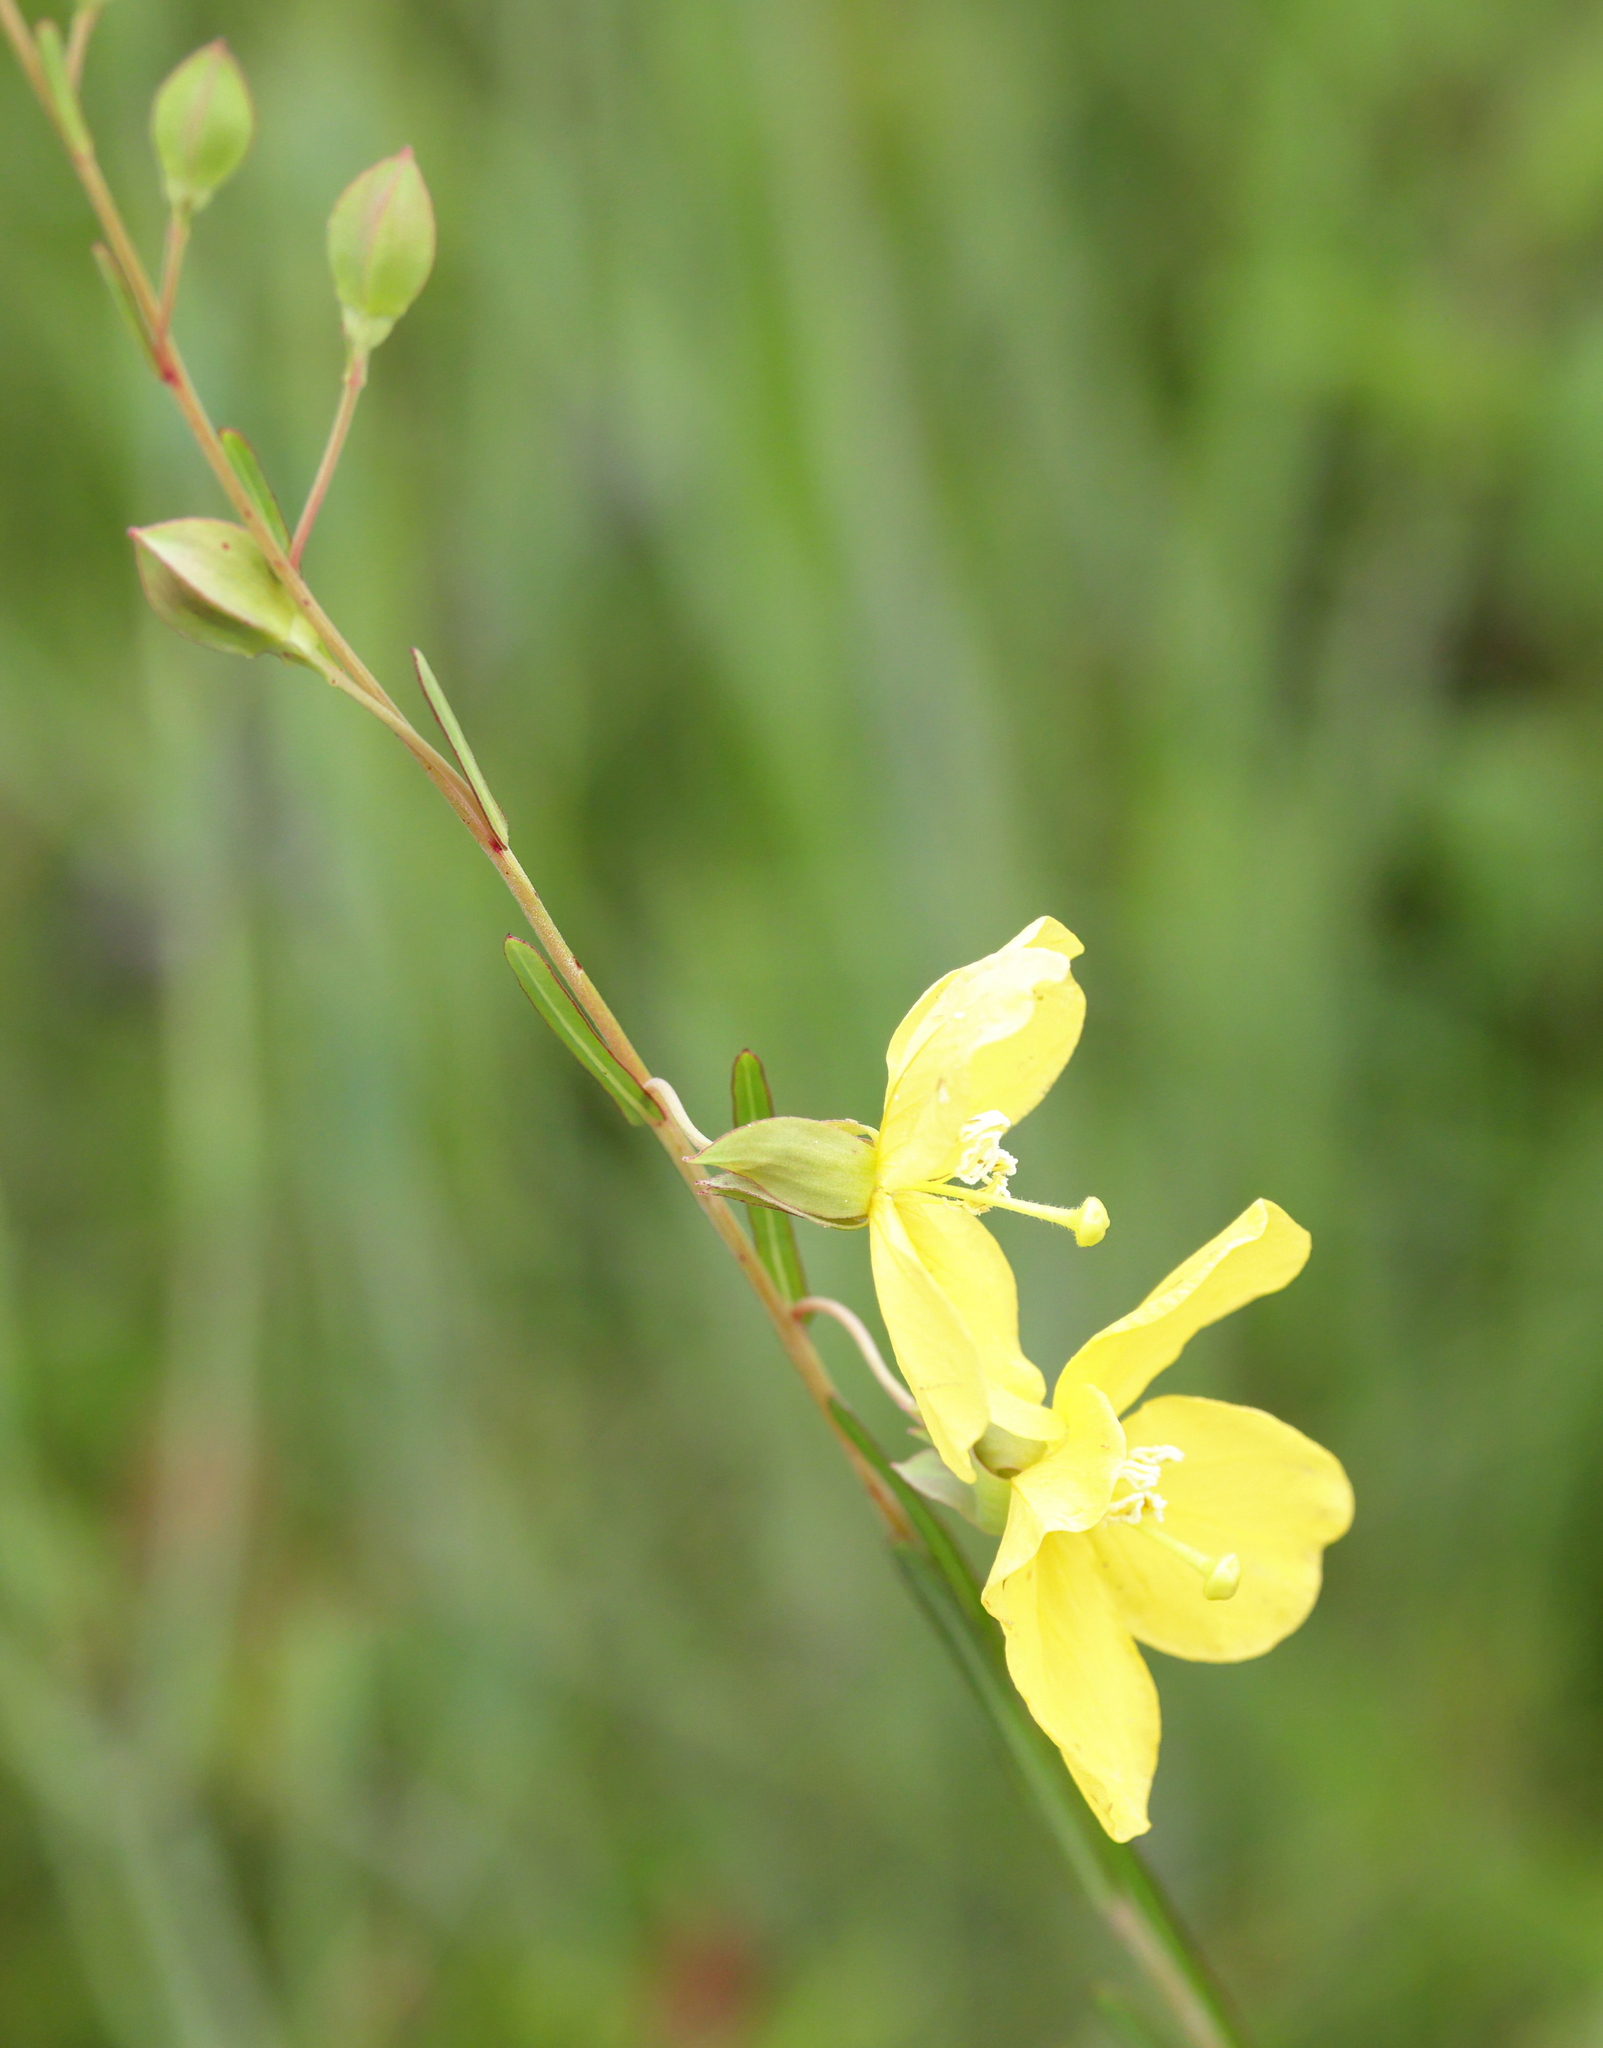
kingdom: Plantae
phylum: Tracheophyta
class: Magnoliopsida
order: Myrtales
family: Onagraceae
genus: Ludwigia
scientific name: Ludwigia virgata
